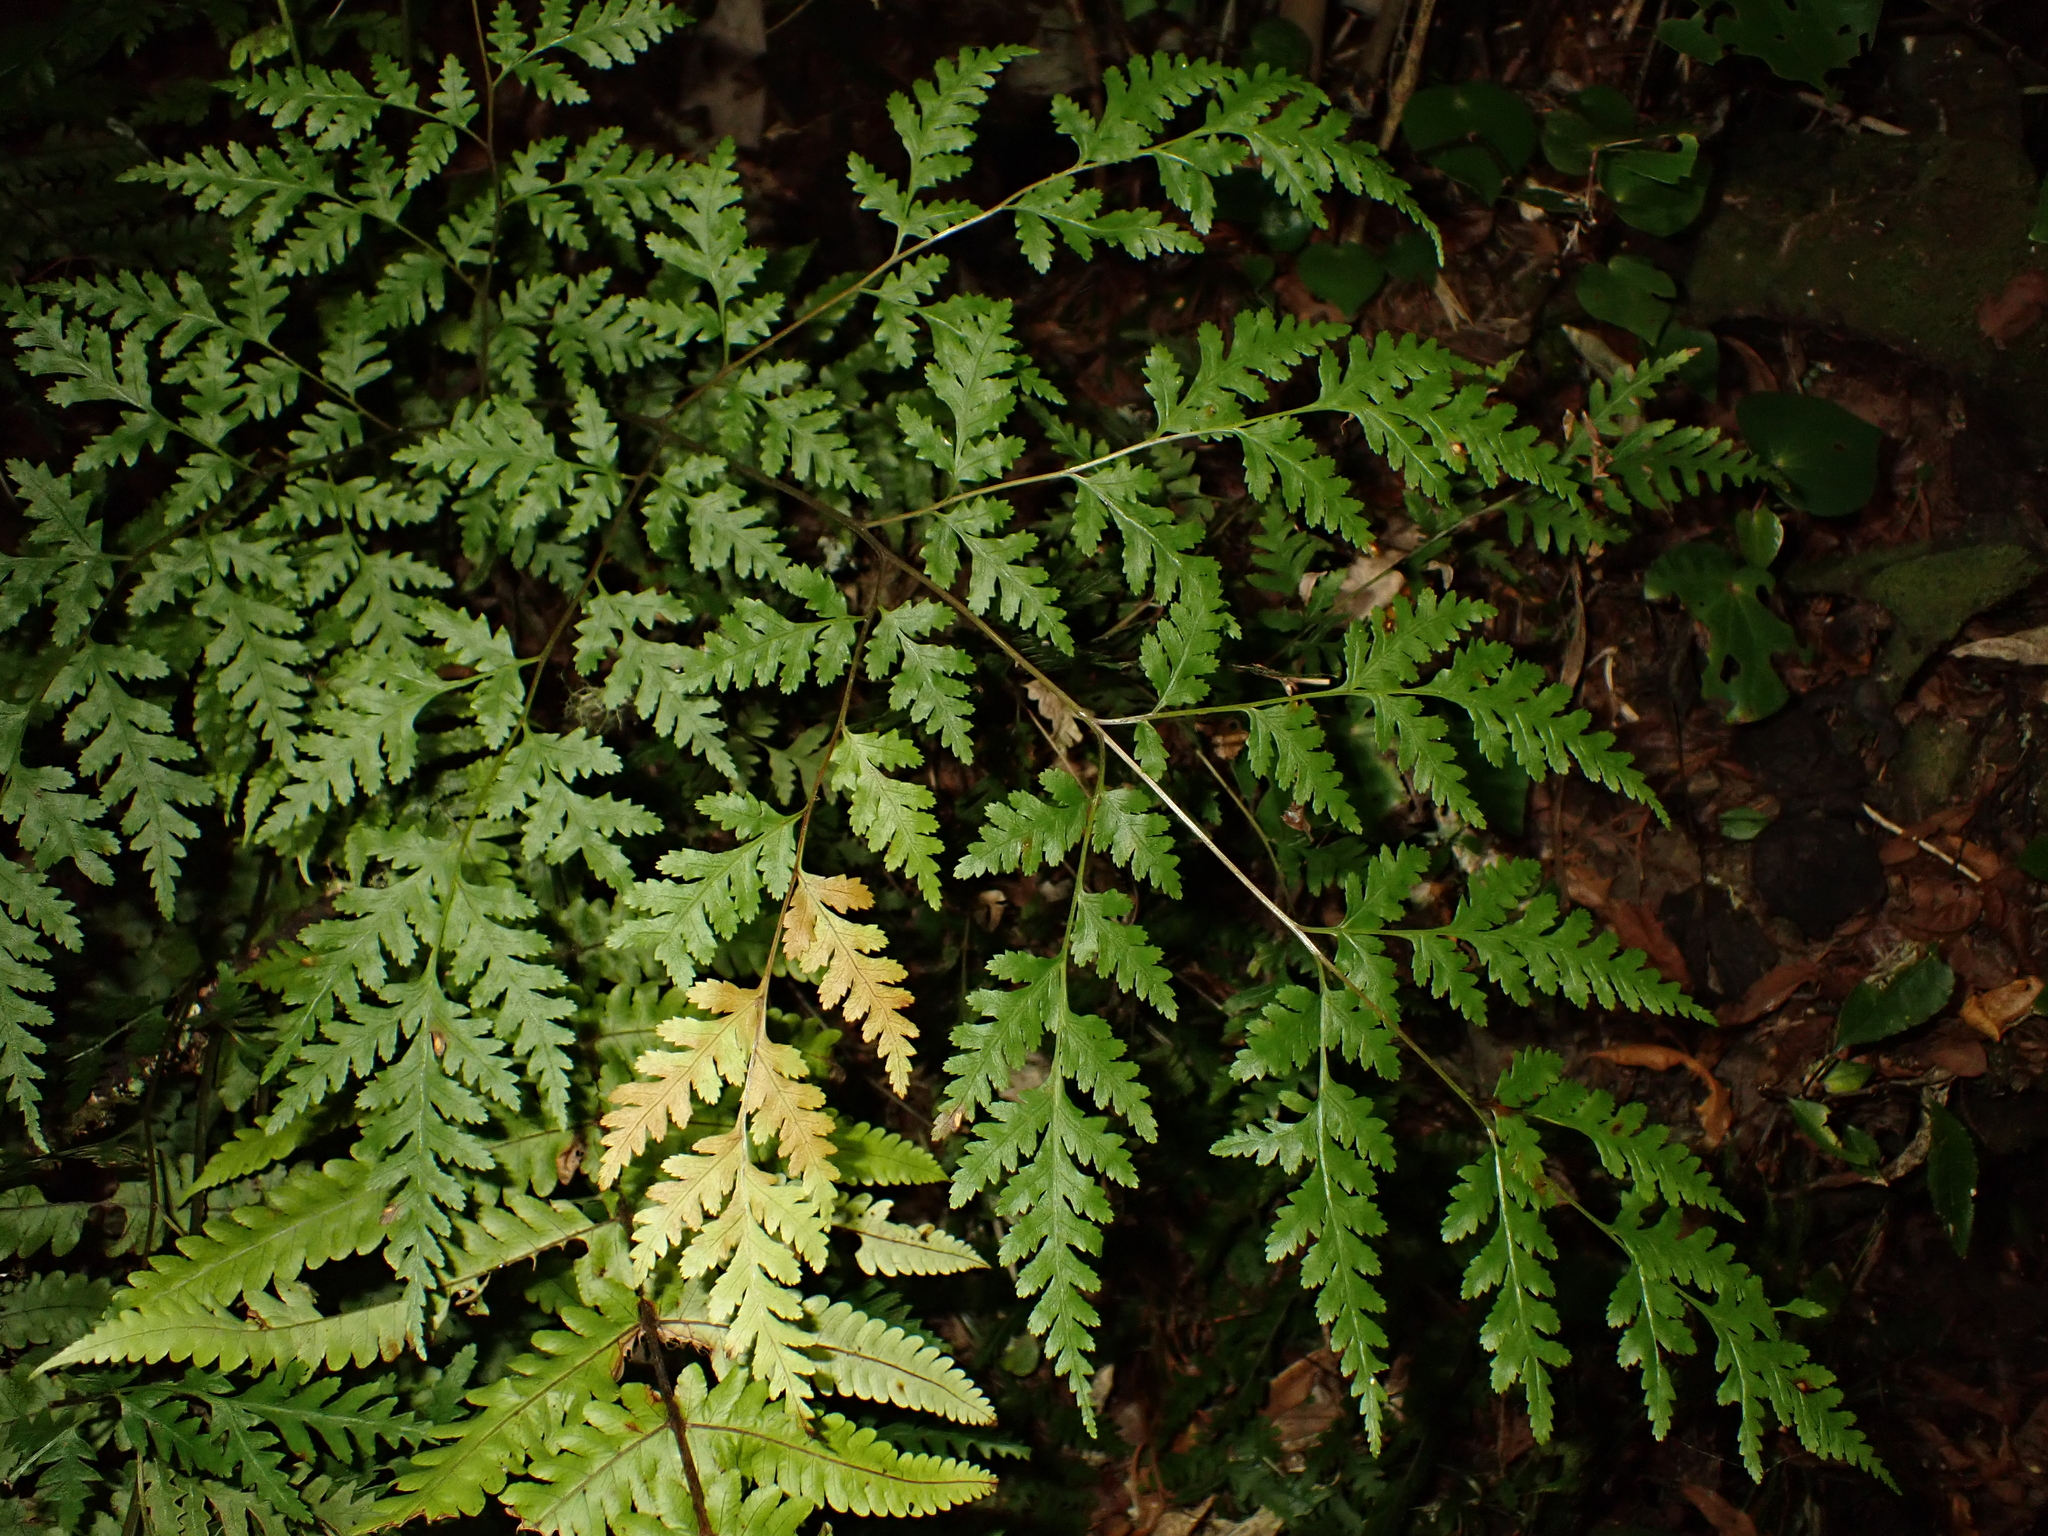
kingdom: Plantae
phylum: Tracheophyta
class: Polypodiopsida
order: Polypodiales
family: Pteridaceae
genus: Pteris
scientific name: Pteris macilenta
